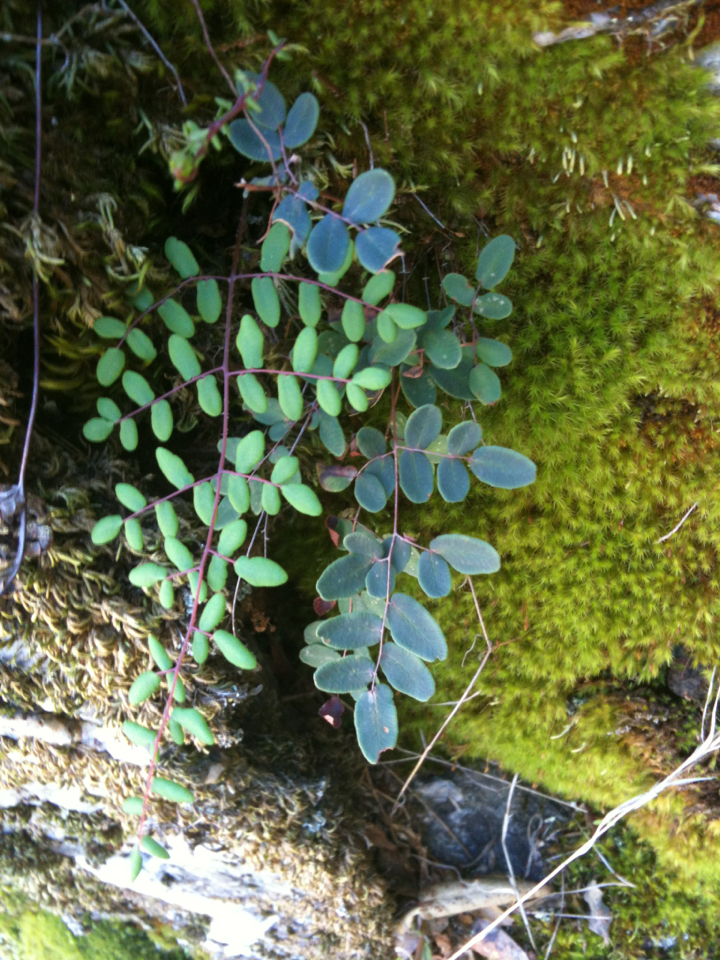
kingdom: Plantae
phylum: Tracheophyta
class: Polypodiopsida
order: Polypodiales
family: Pteridaceae
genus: Pellaea
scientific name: Pellaea andromedifolia
